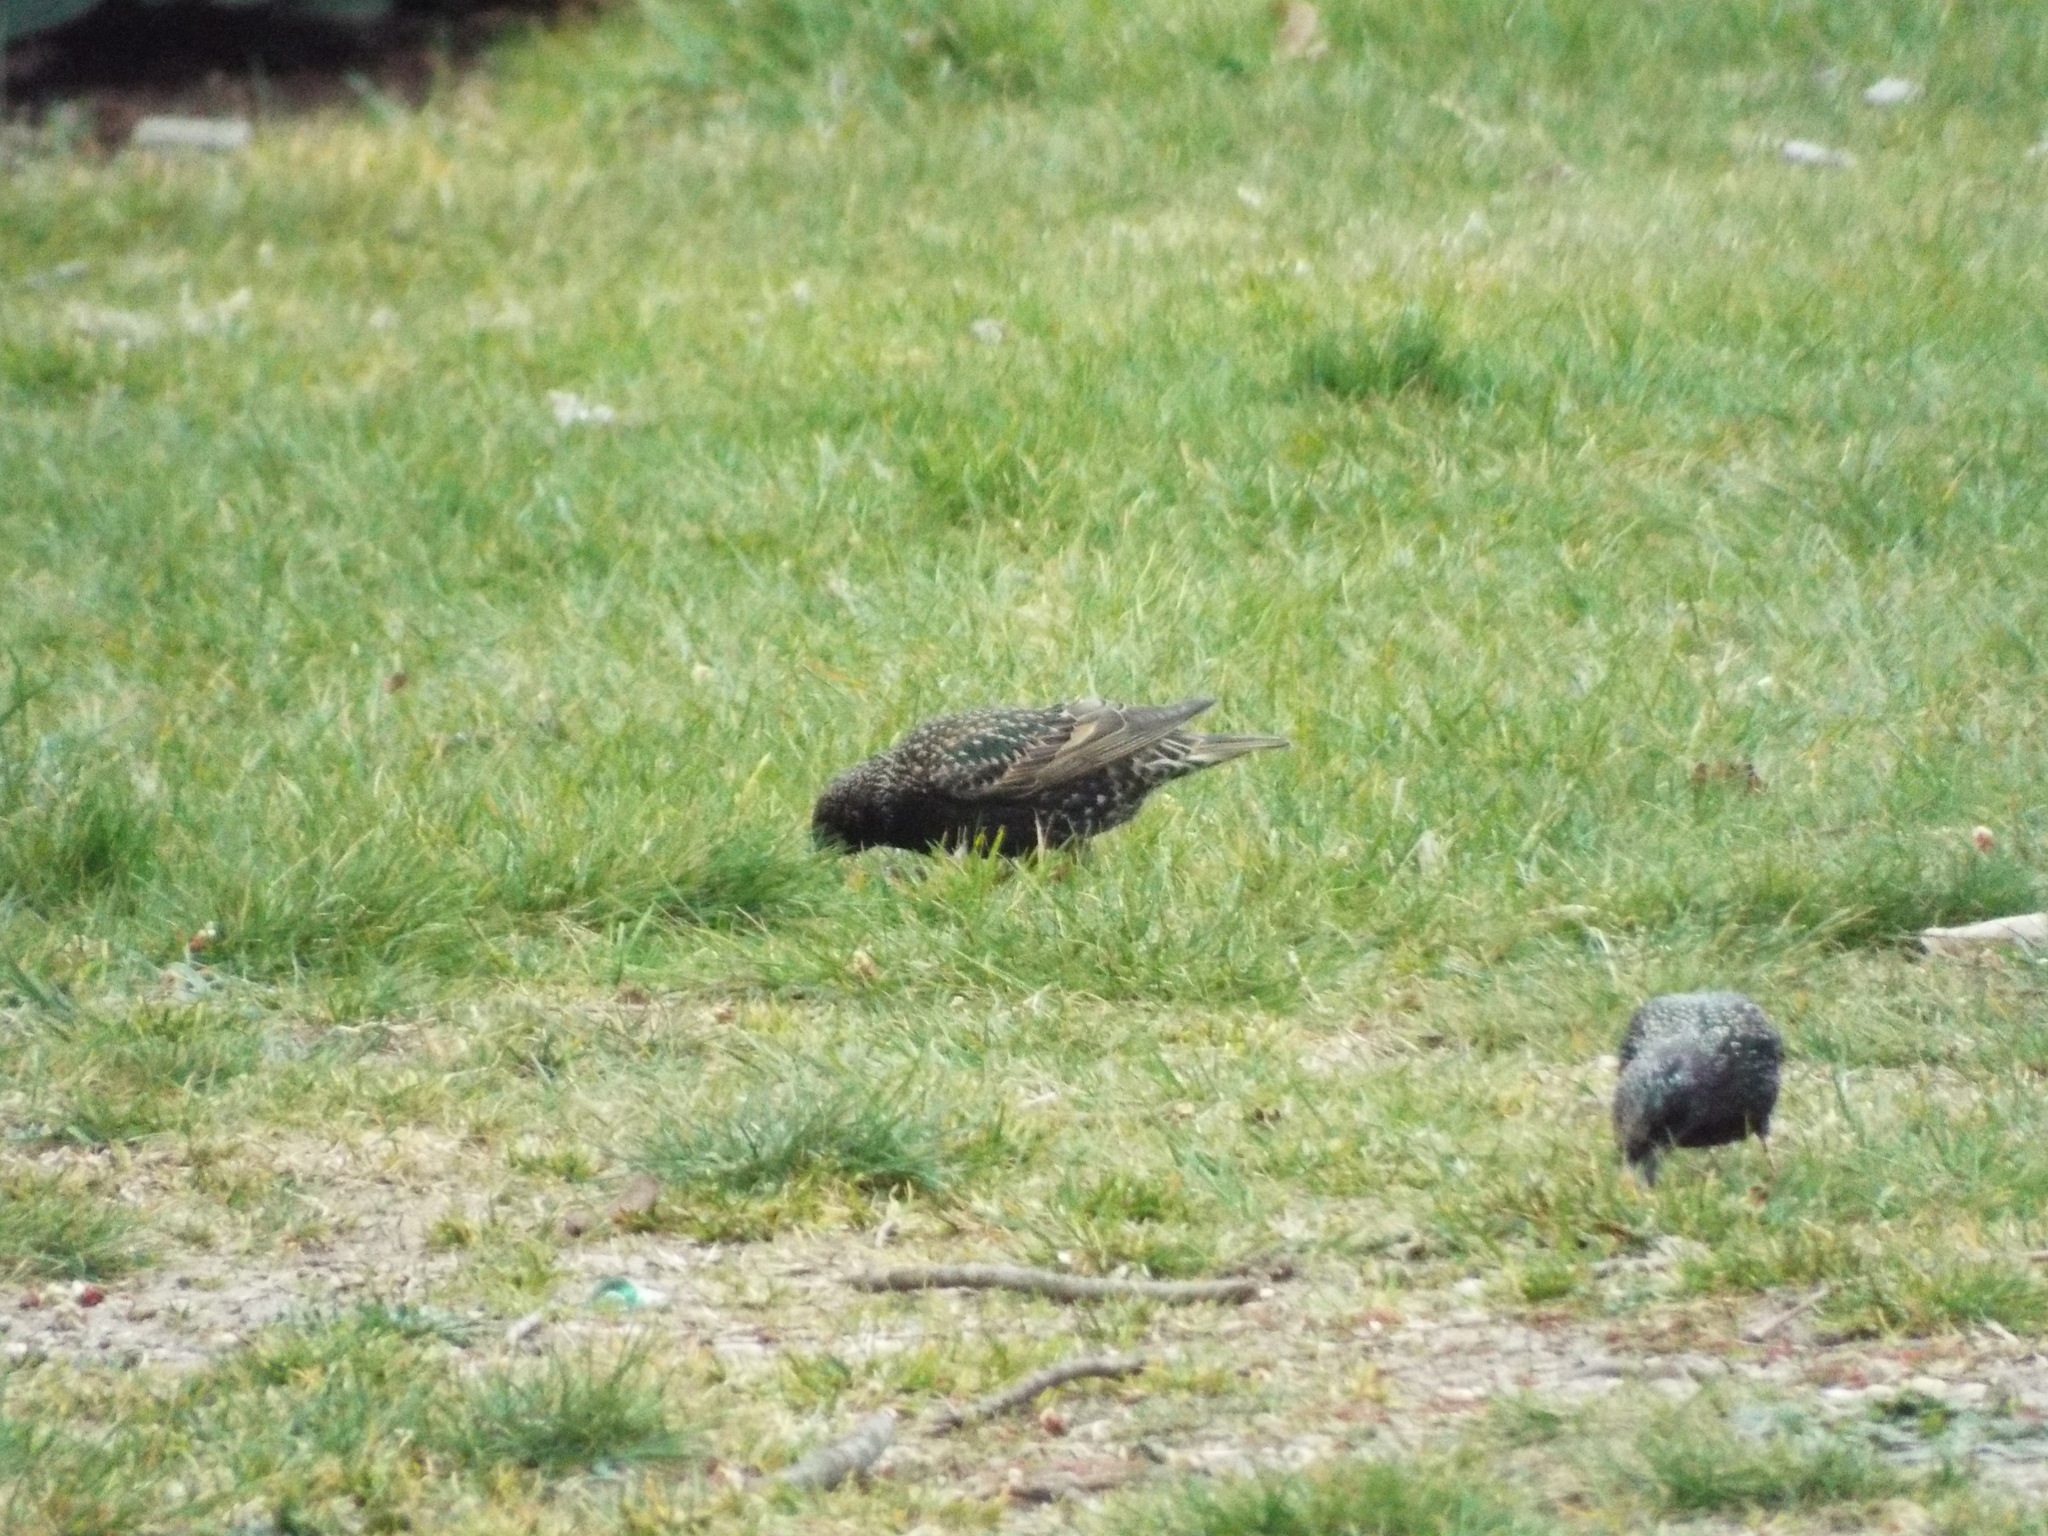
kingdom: Animalia
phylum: Chordata
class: Aves
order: Passeriformes
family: Sturnidae
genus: Sturnus
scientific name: Sturnus vulgaris
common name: Common starling
